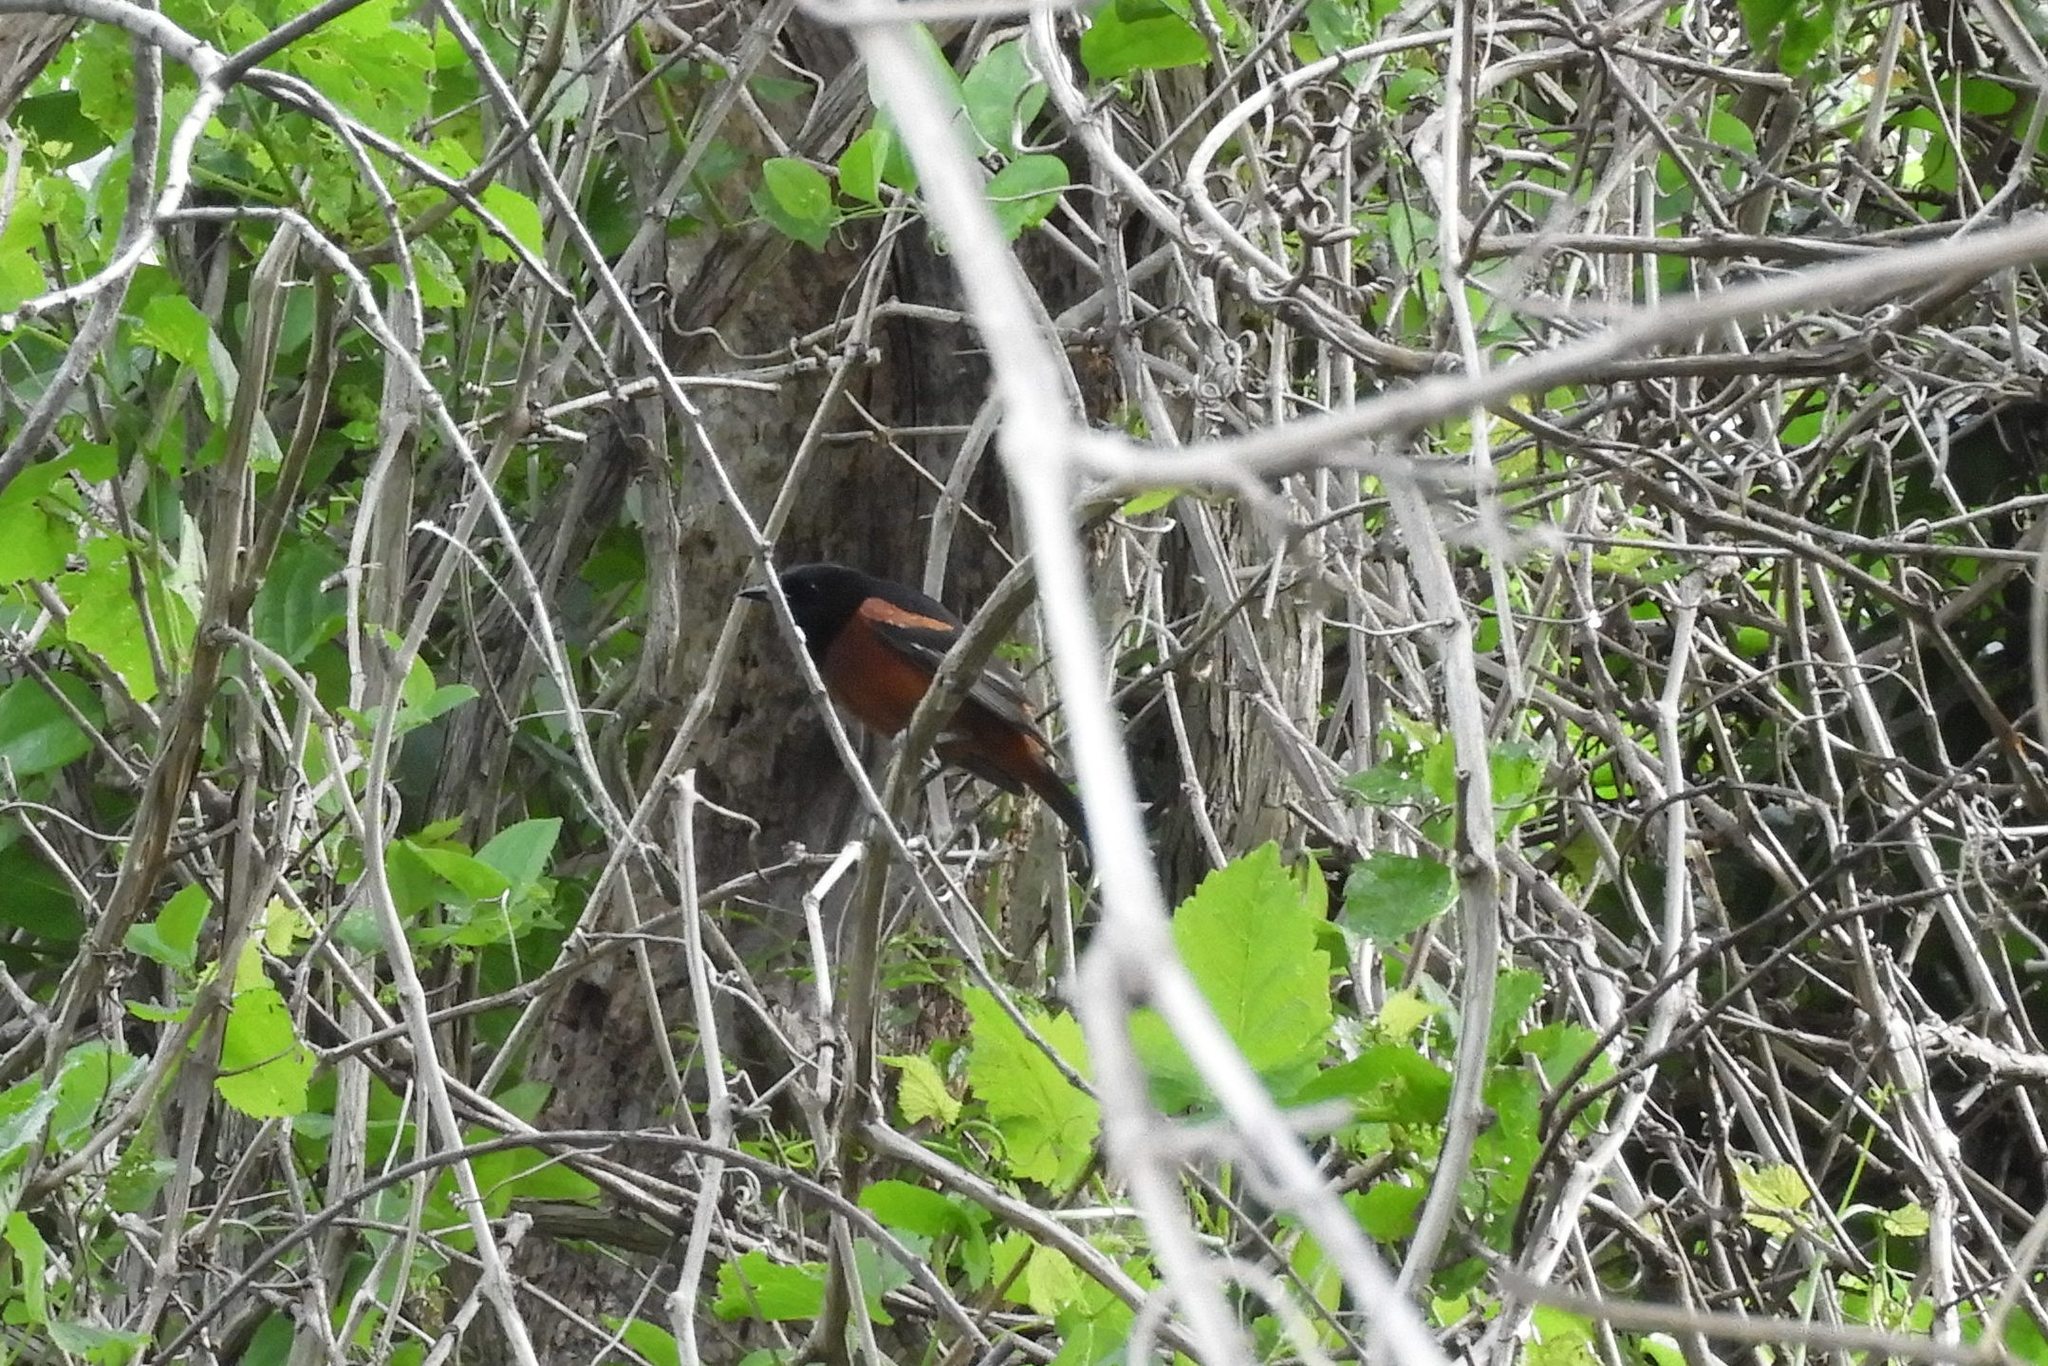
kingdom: Animalia
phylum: Chordata
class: Aves
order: Passeriformes
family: Icteridae
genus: Icterus
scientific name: Icterus spurius
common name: Orchard oriole
